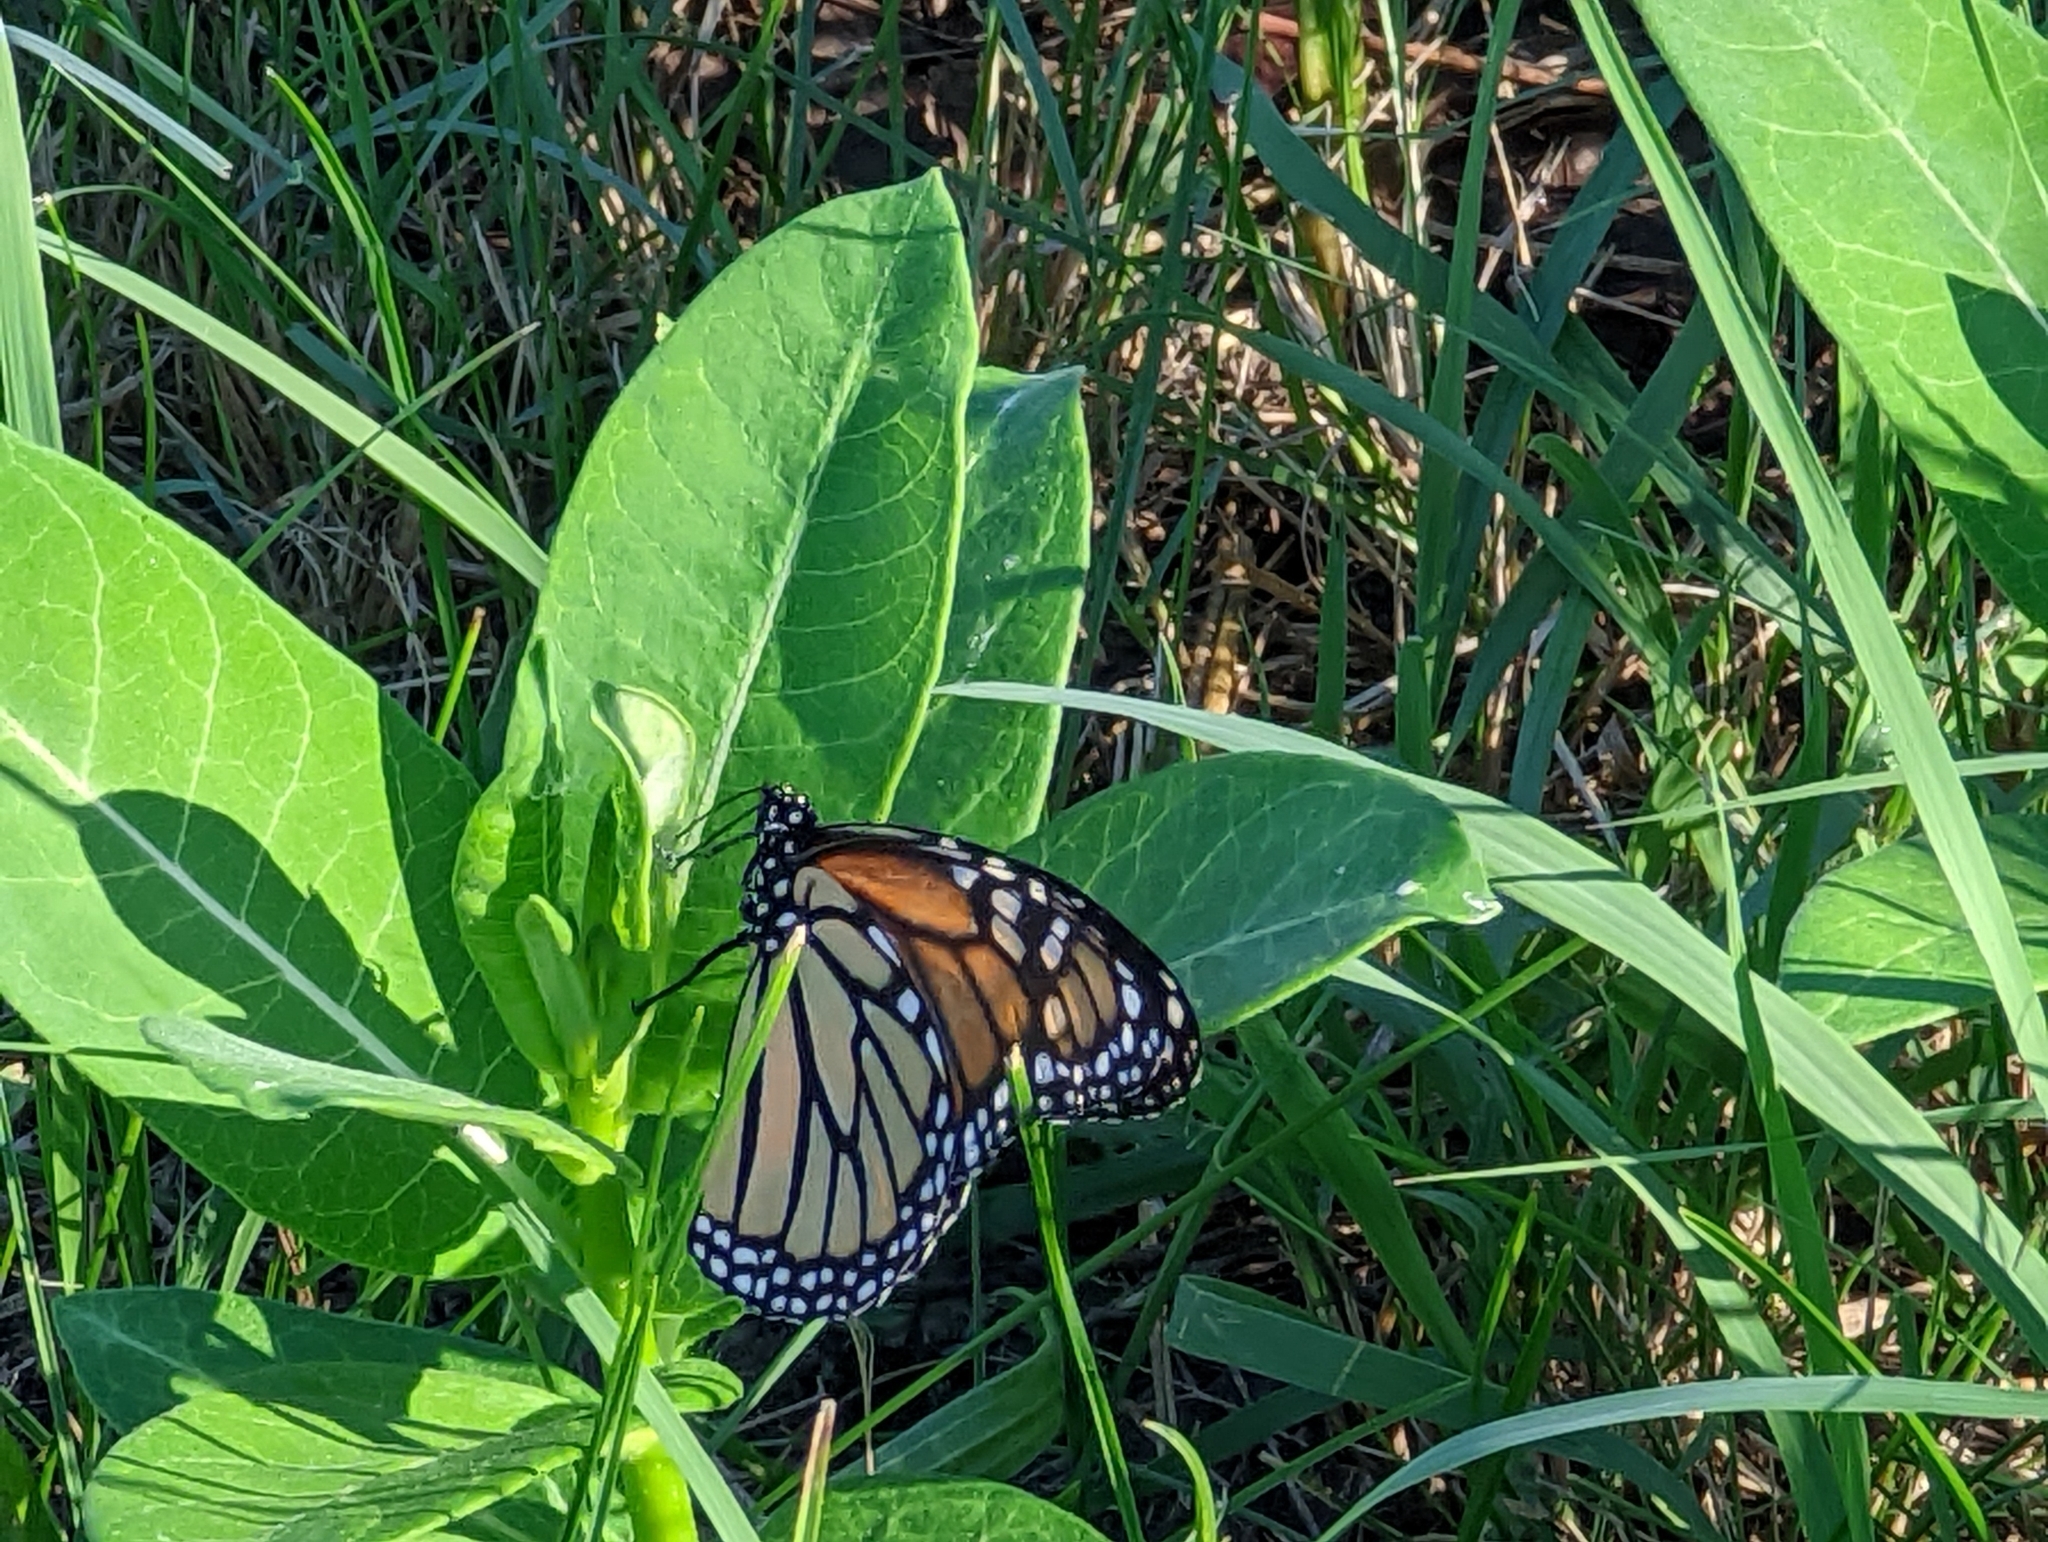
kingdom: Animalia
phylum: Arthropoda
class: Insecta
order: Lepidoptera
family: Nymphalidae
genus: Danaus
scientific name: Danaus plexippus
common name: Monarch
